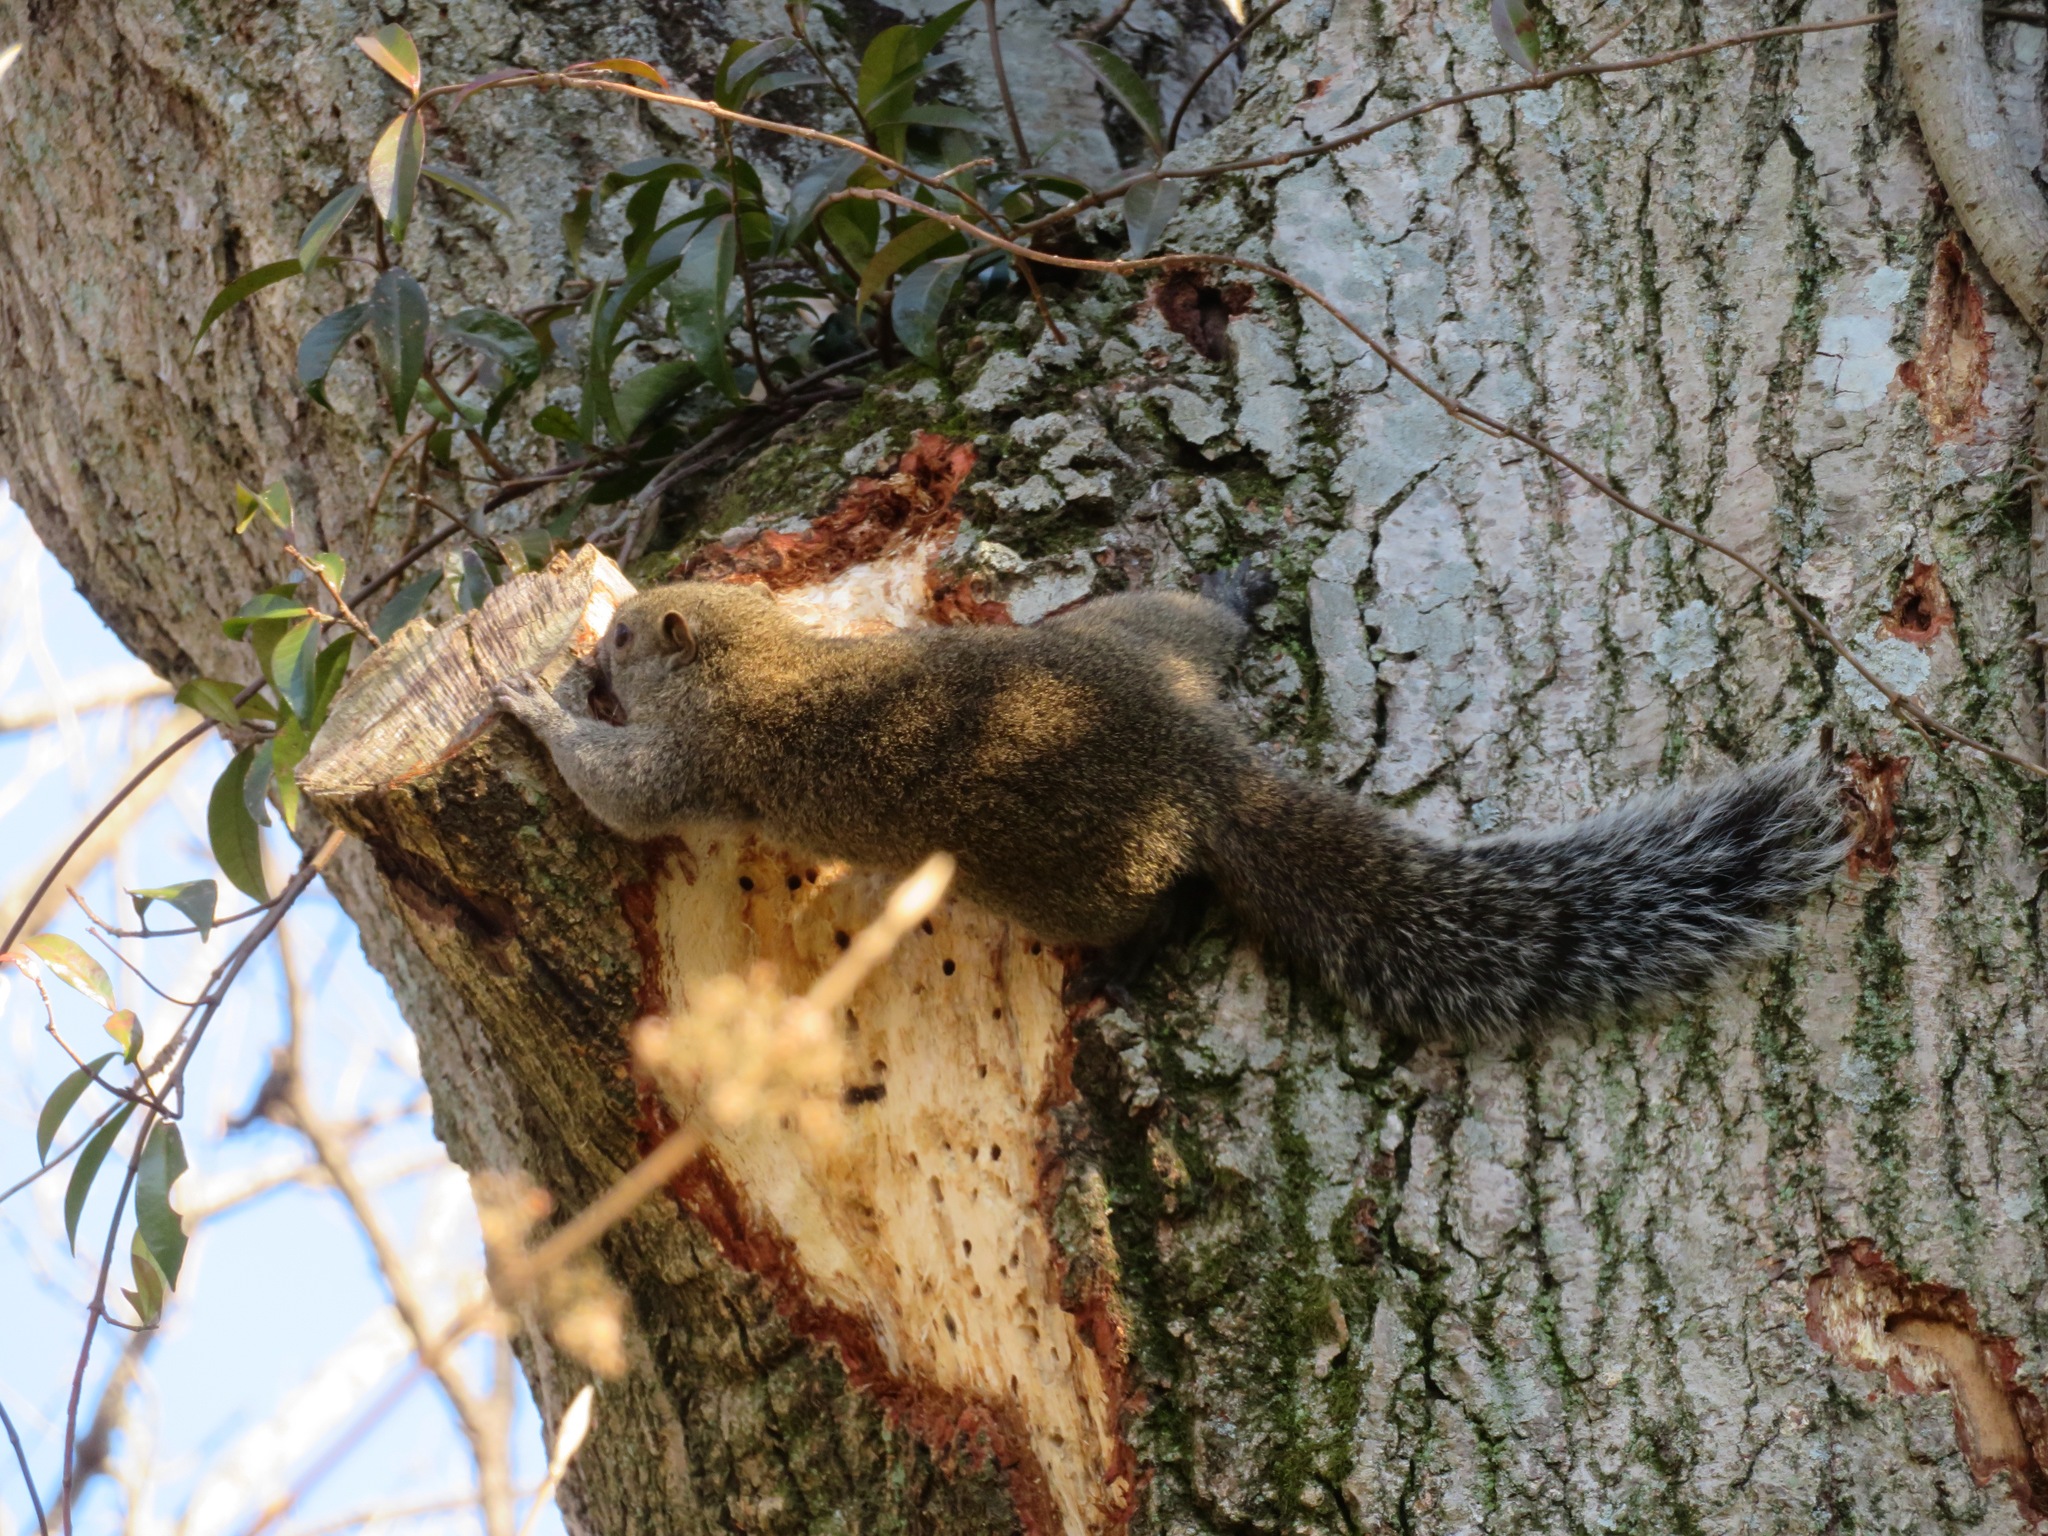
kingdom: Animalia
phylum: Chordata
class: Mammalia
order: Rodentia
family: Sciuridae
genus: Callosciurus
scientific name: Callosciurus erythraeus
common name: Pallas's squirrel
